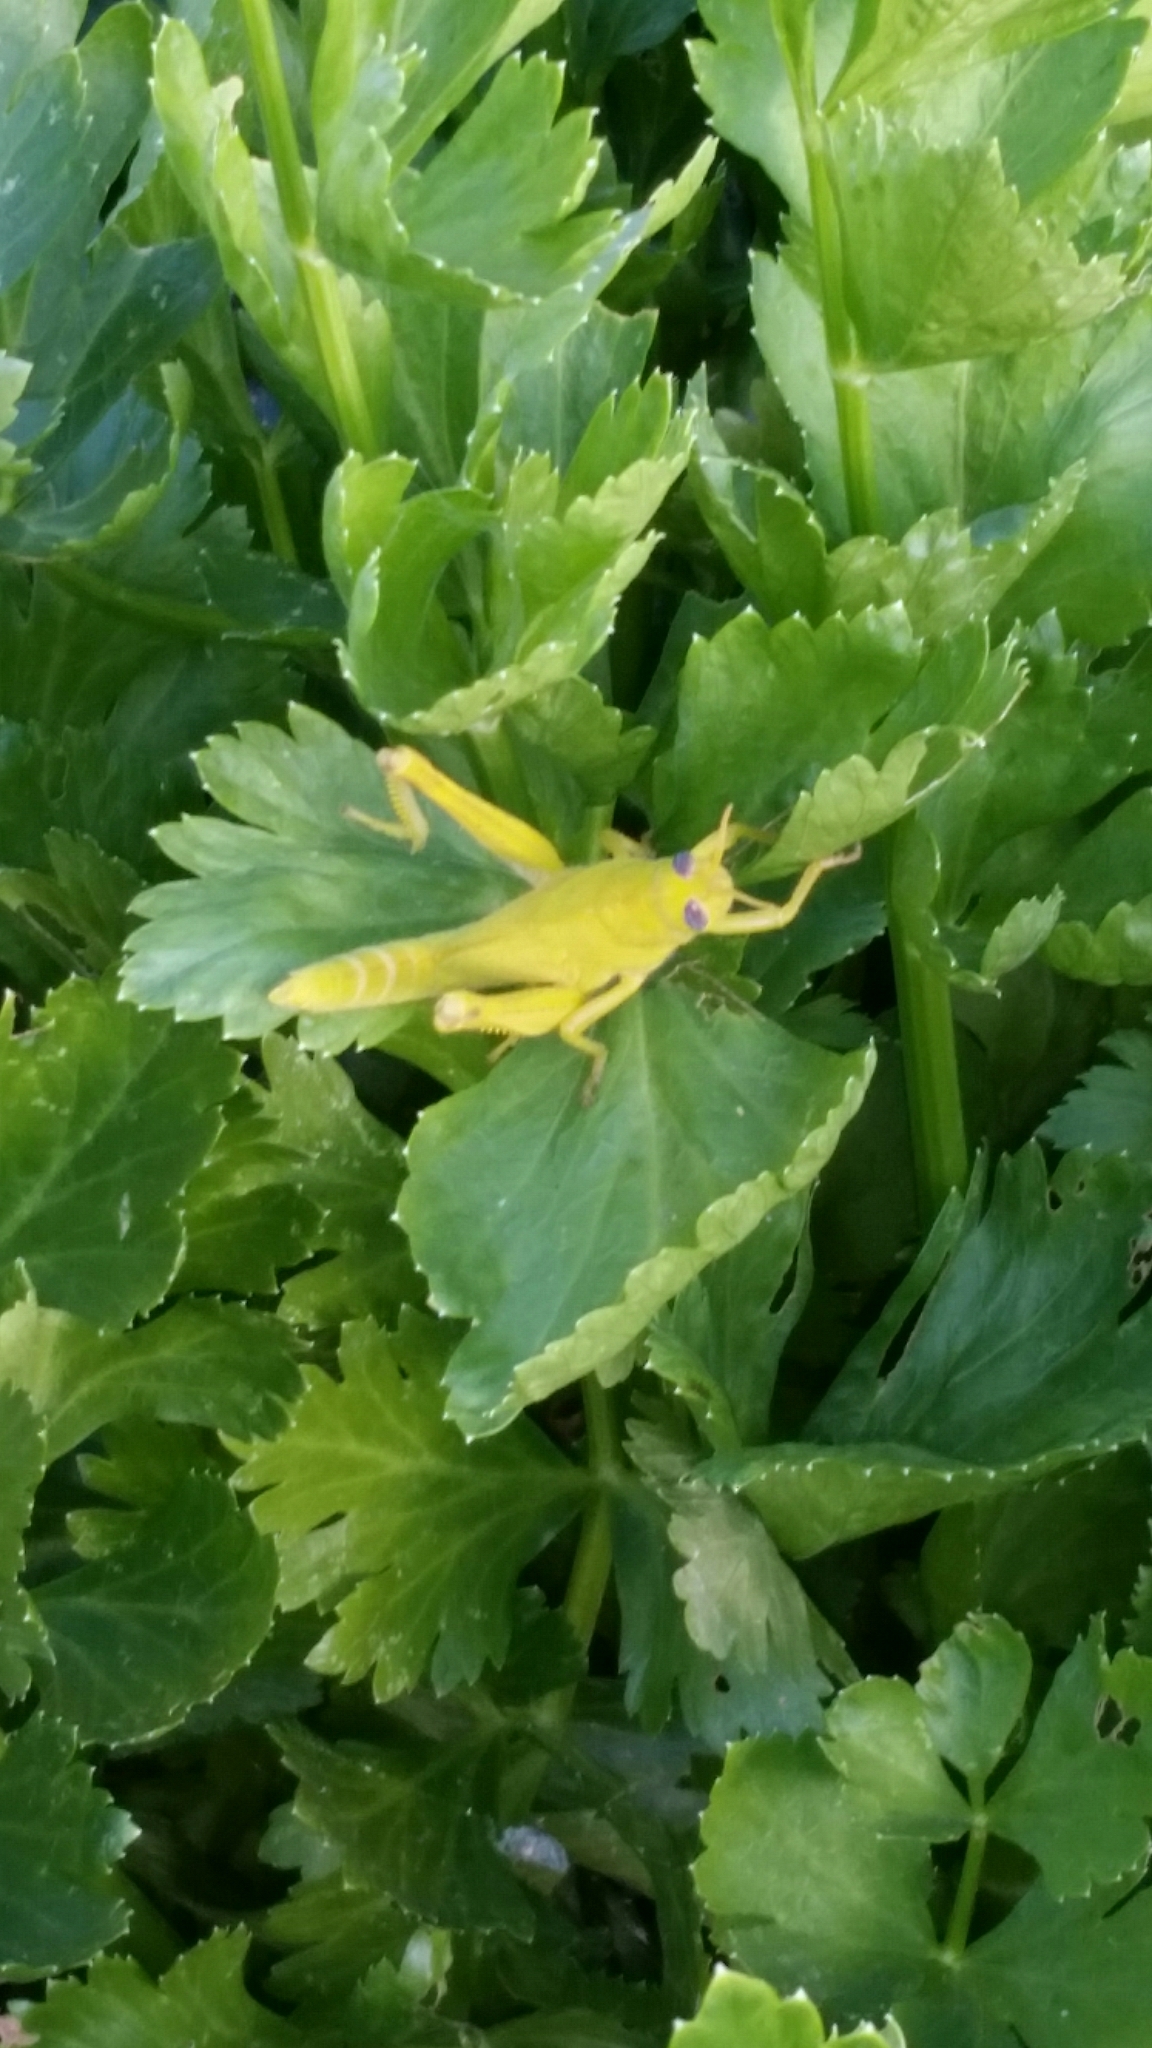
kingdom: Animalia
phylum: Arthropoda
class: Insecta
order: Orthoptera
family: Acrididae
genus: Schistocerca
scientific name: Schistocerca nitens
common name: Vagrant grasshopper
